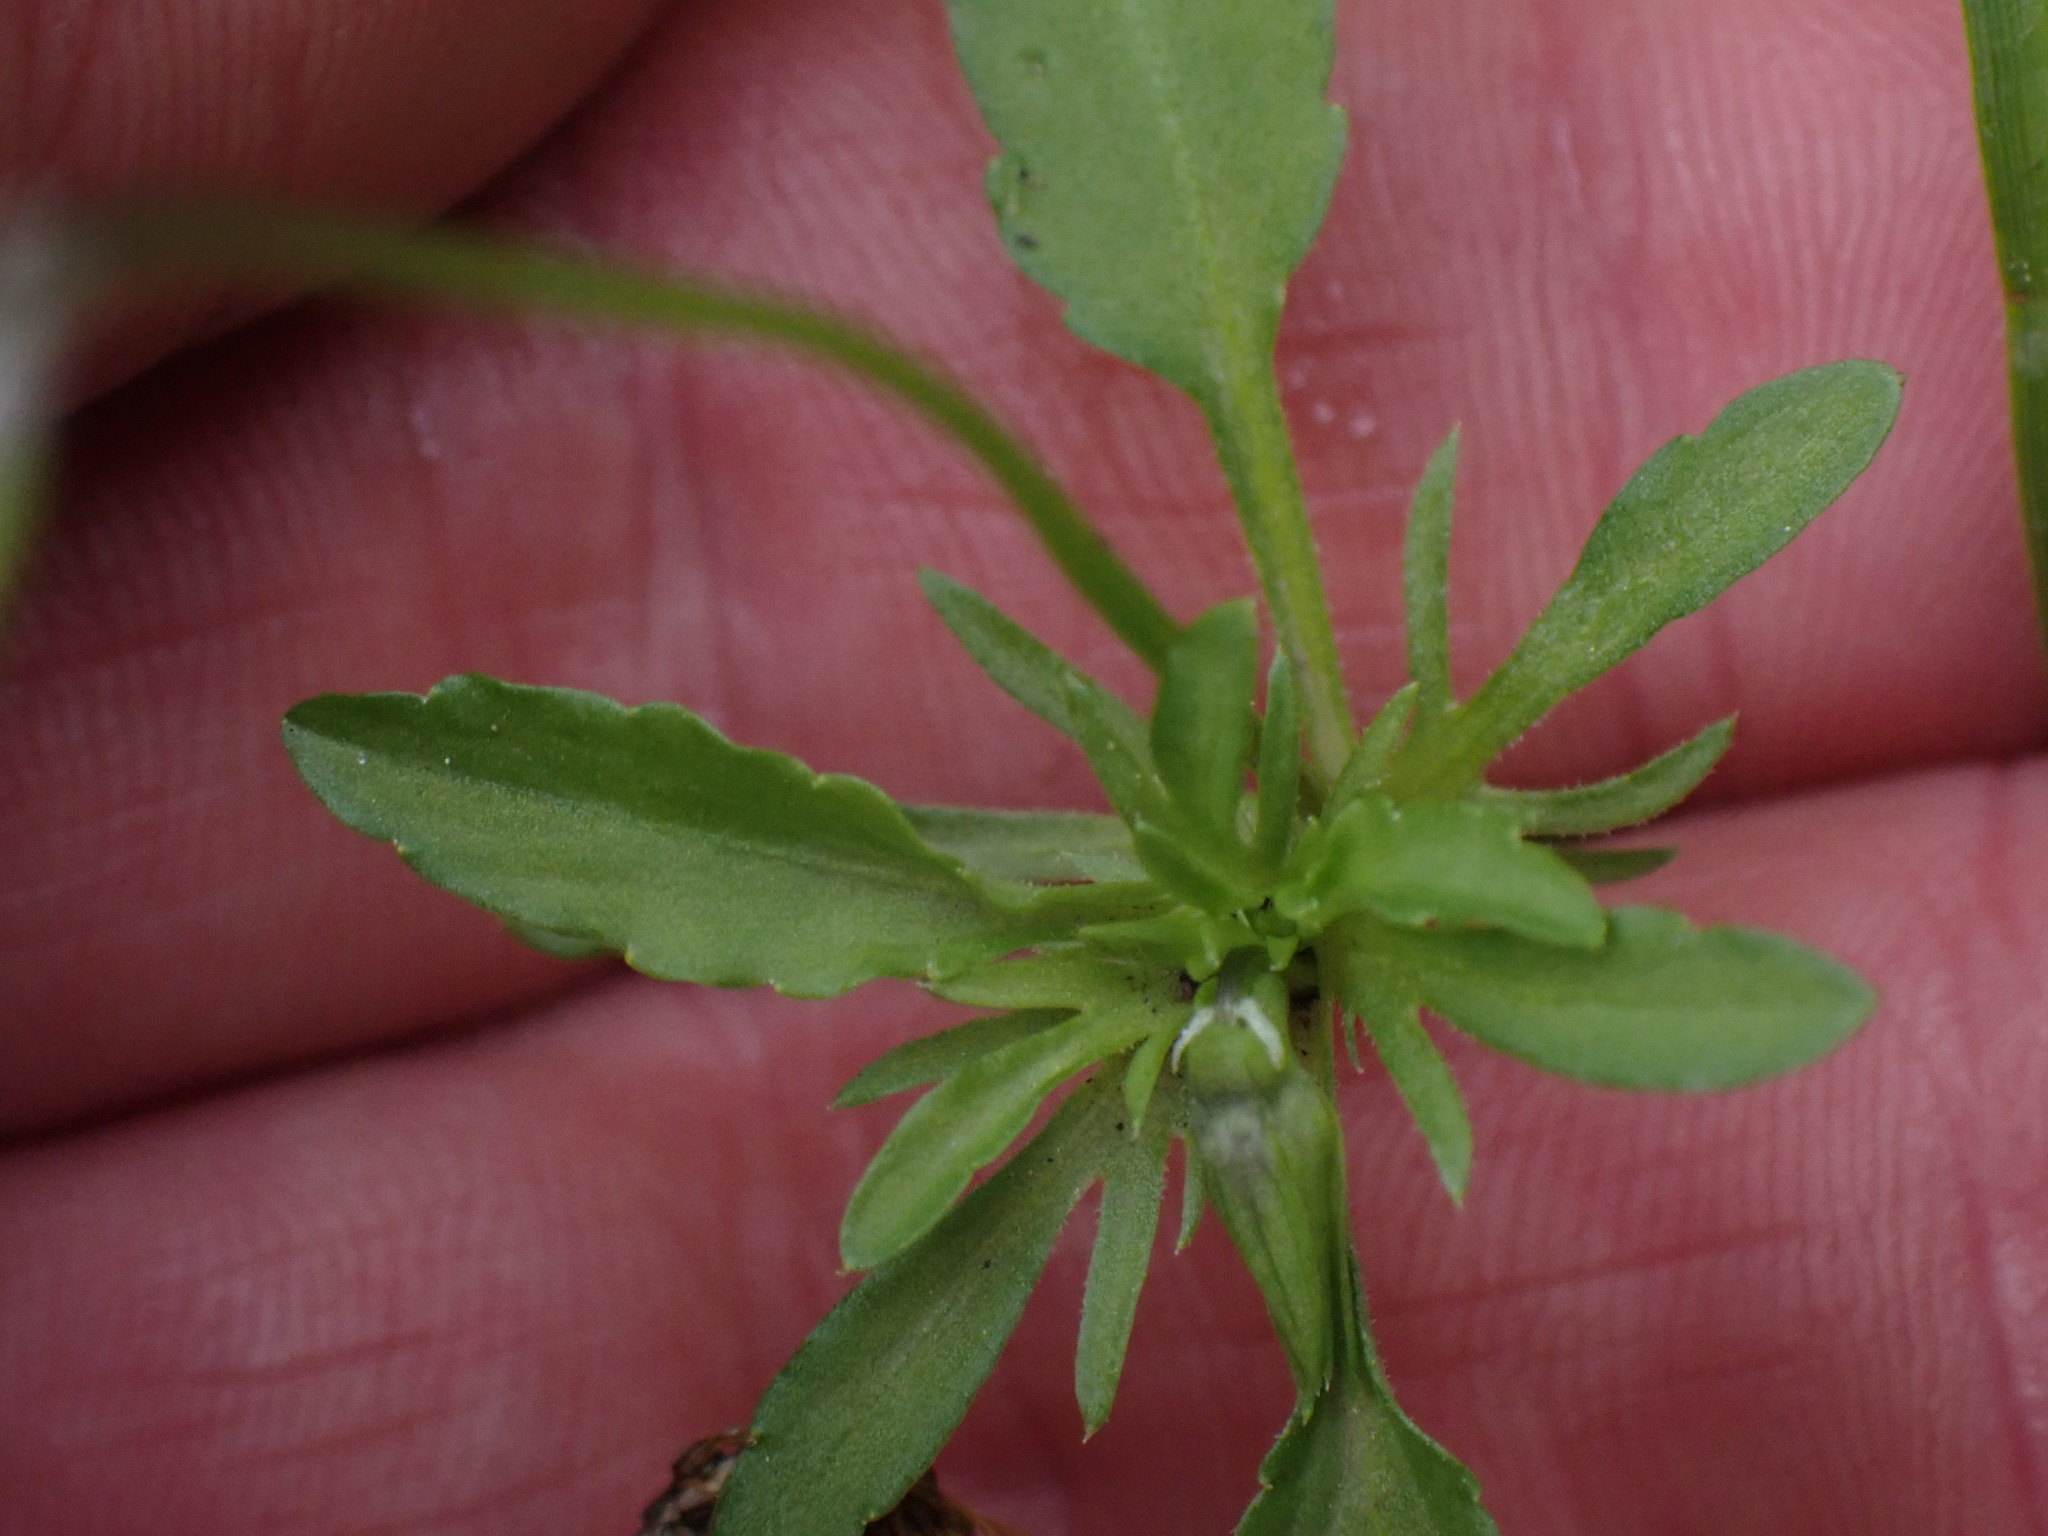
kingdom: Plantae
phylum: Tracheophyta
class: Magnoliopsida
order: Malpighiales
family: Violaceae
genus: Viola
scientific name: Viola arvensis
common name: Field pansy
